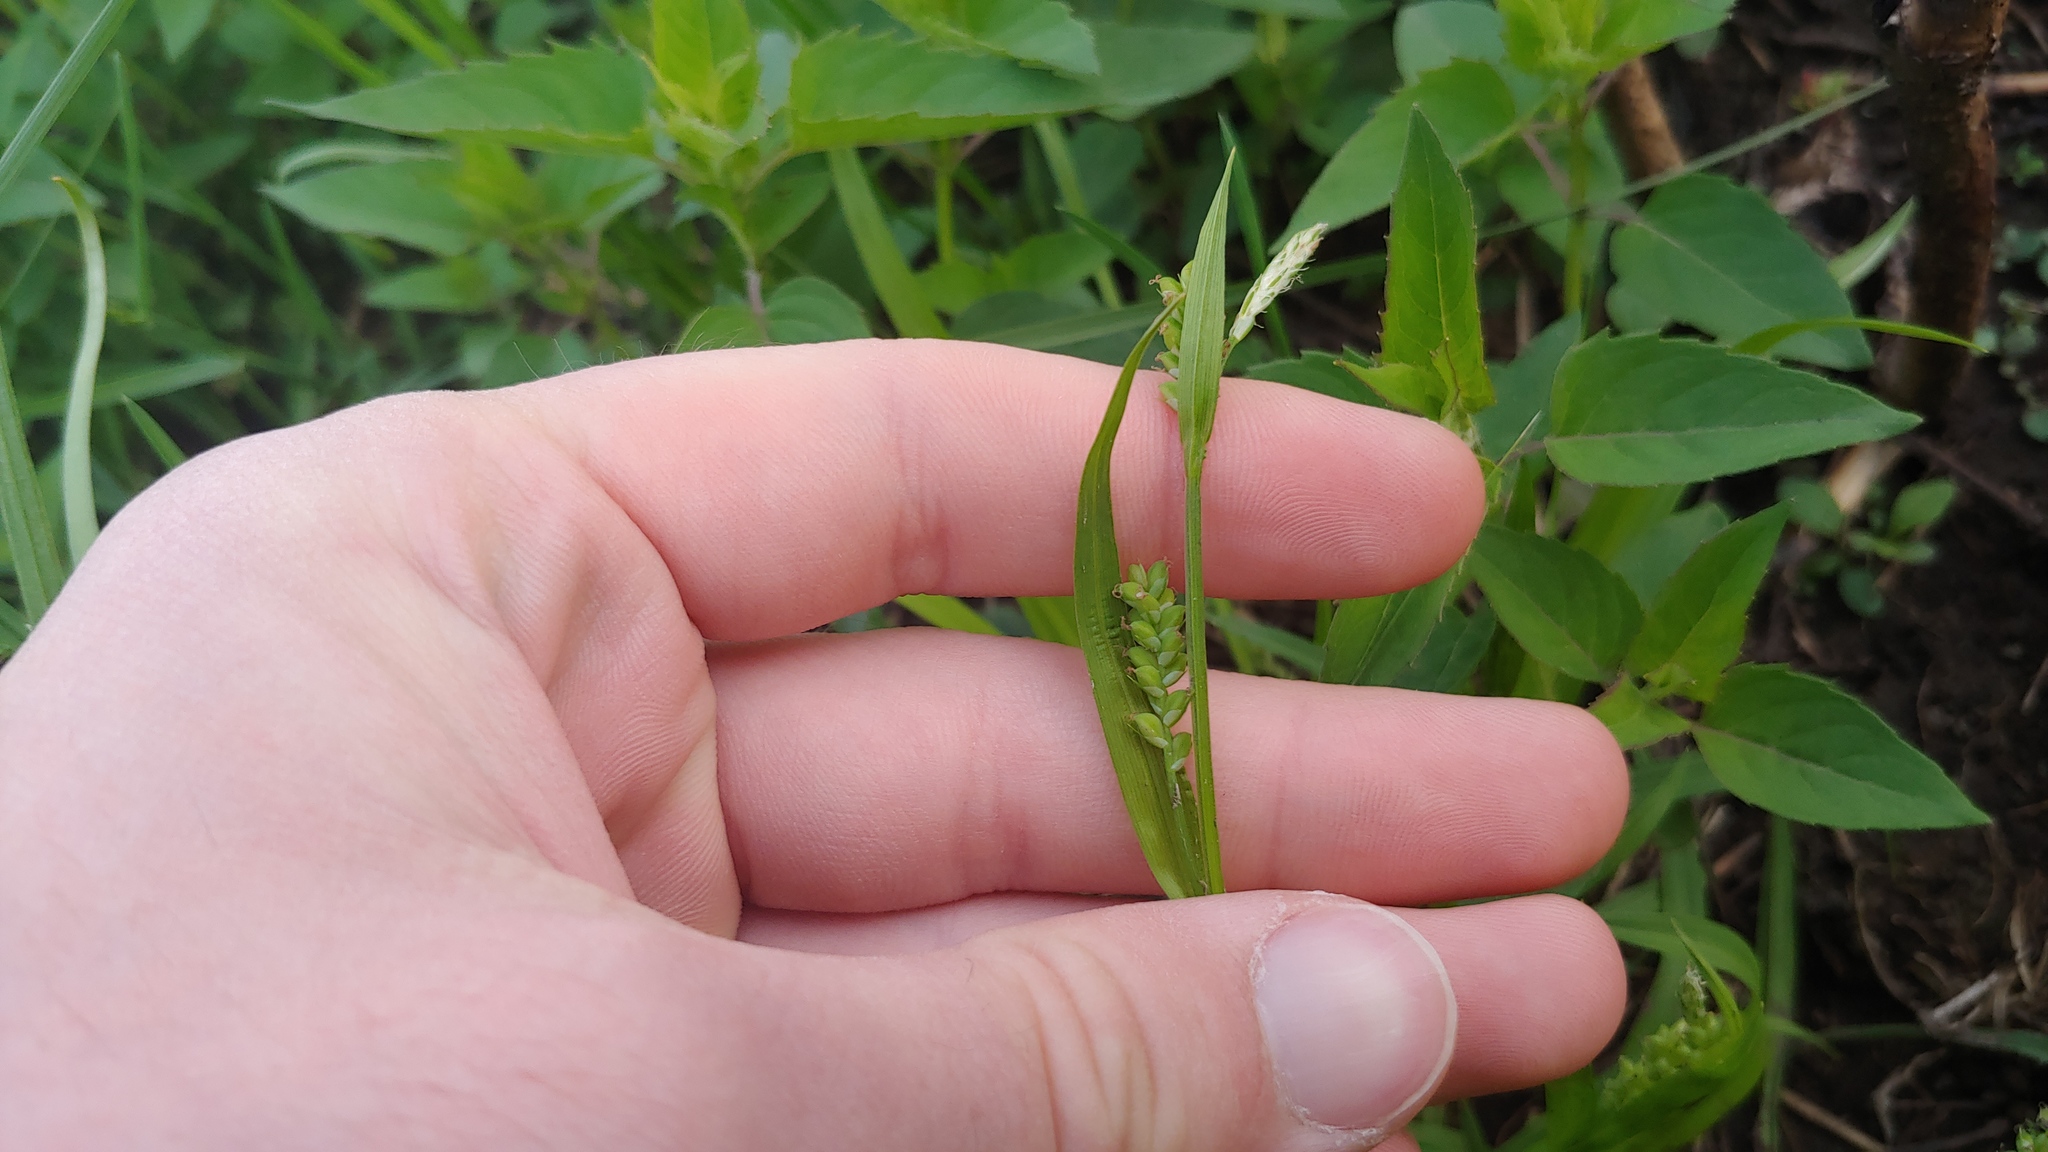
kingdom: Plantae
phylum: Tracheophyta
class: Liliopsida
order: Poales
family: Cyperaceae
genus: Carex
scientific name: Carex blanda
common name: Bland sedge
